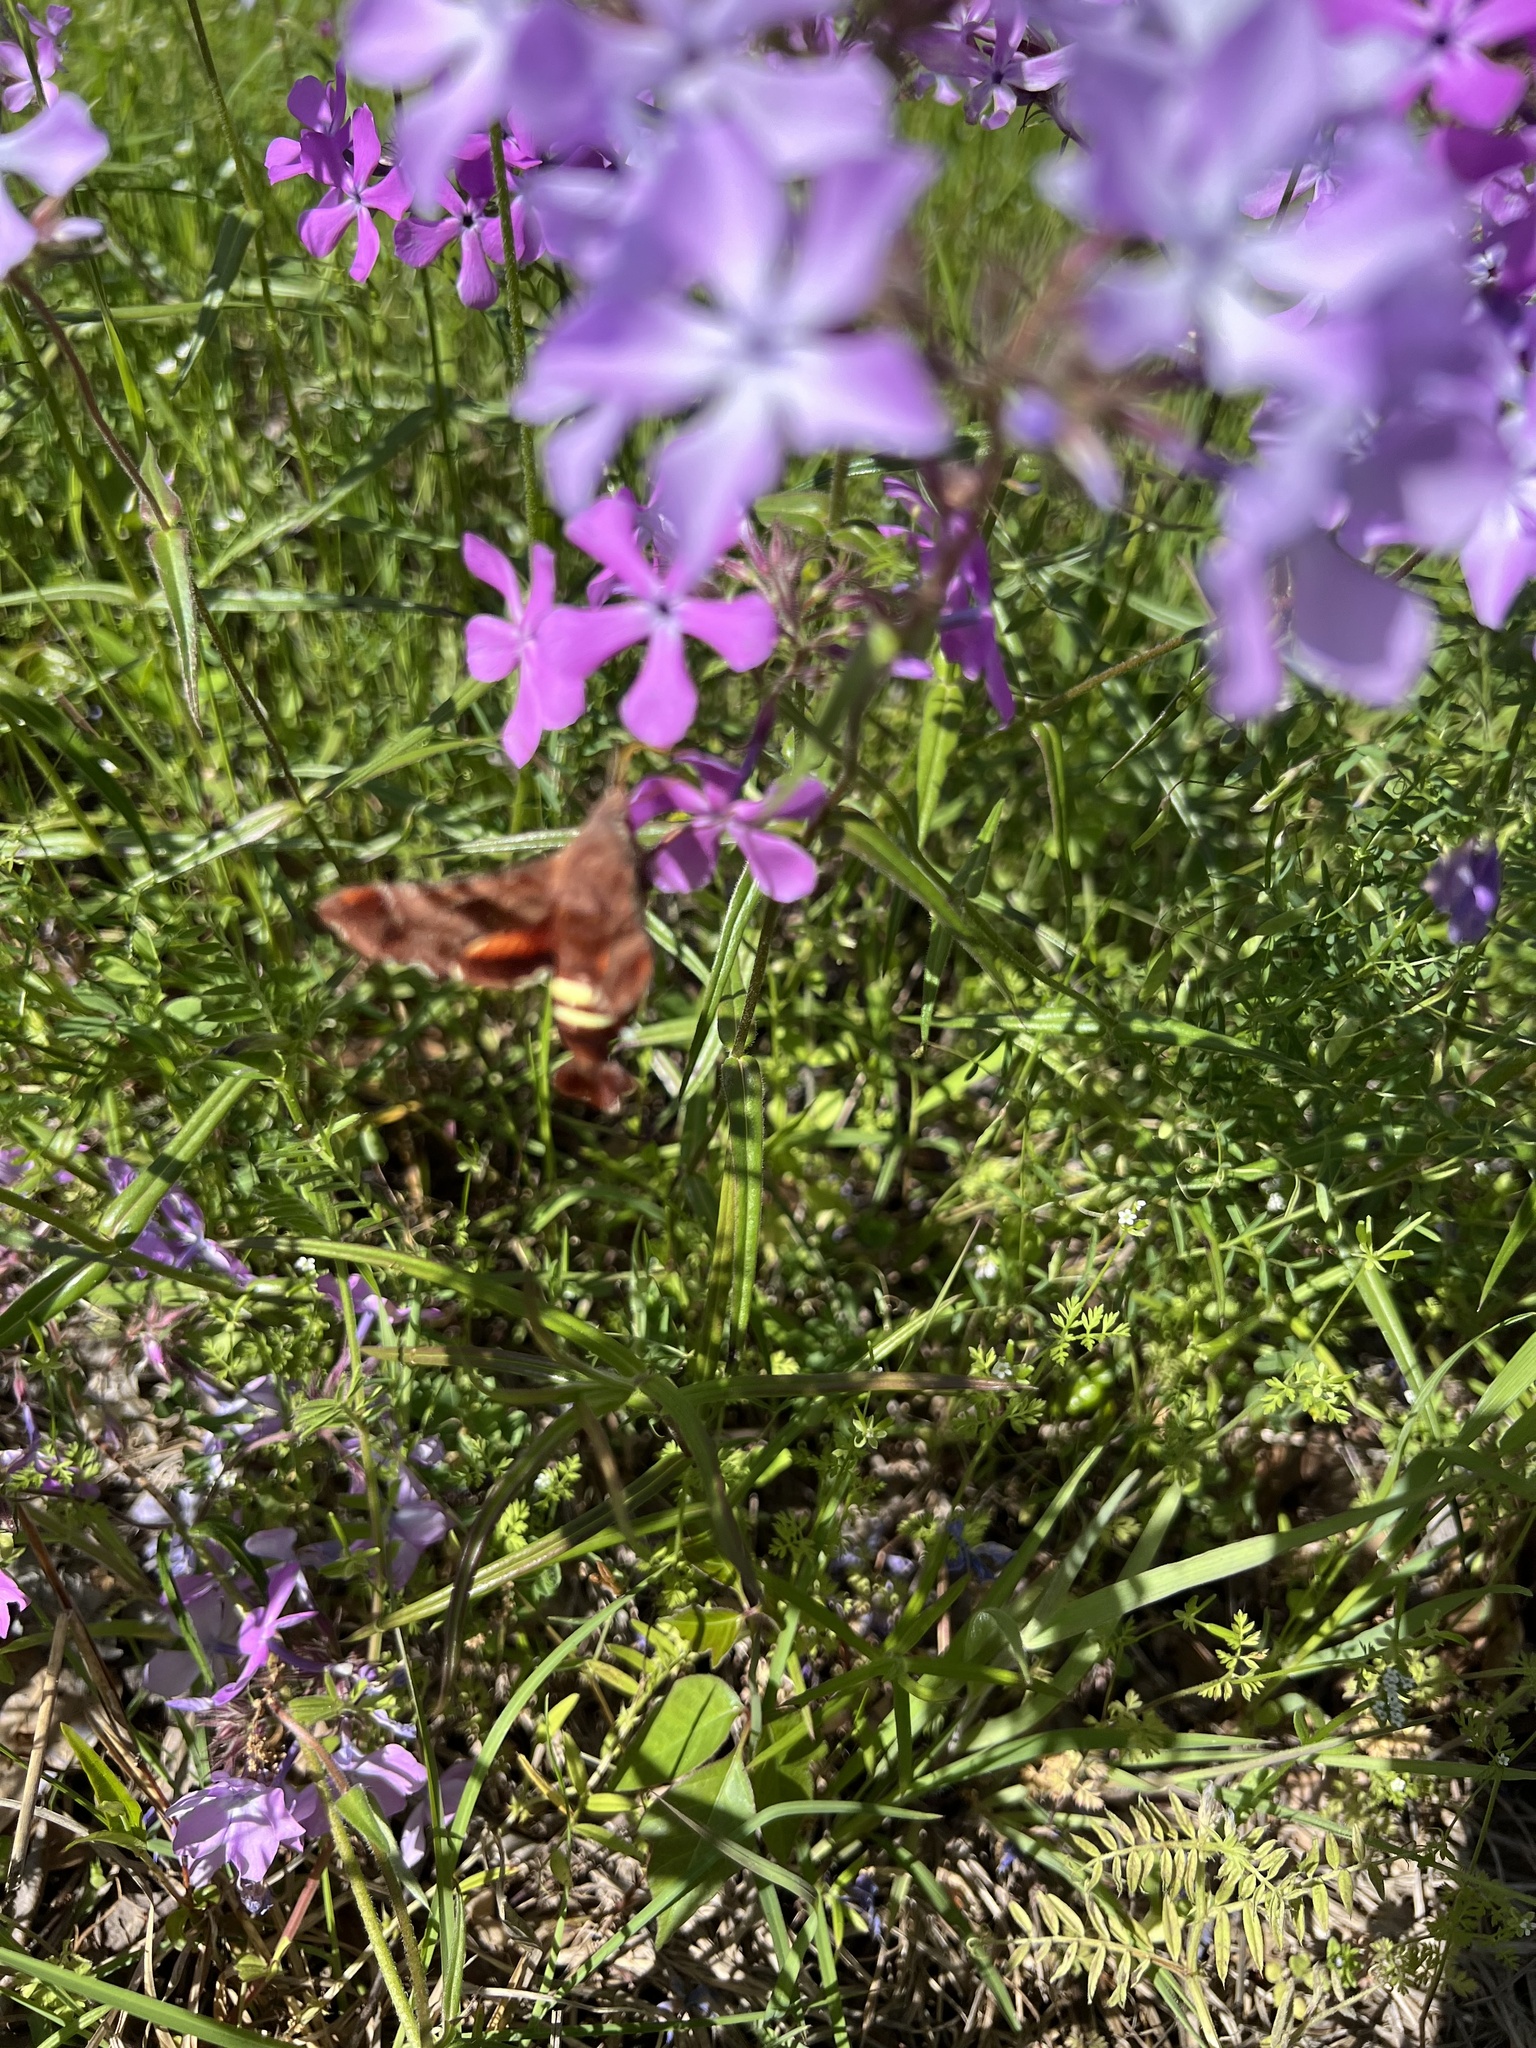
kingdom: Animalia
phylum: Arthropoda
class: Insecta
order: Lepidoptera
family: Sphingidae
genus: Amphion
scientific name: Amphion floridensis
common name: Nessus sphinx
